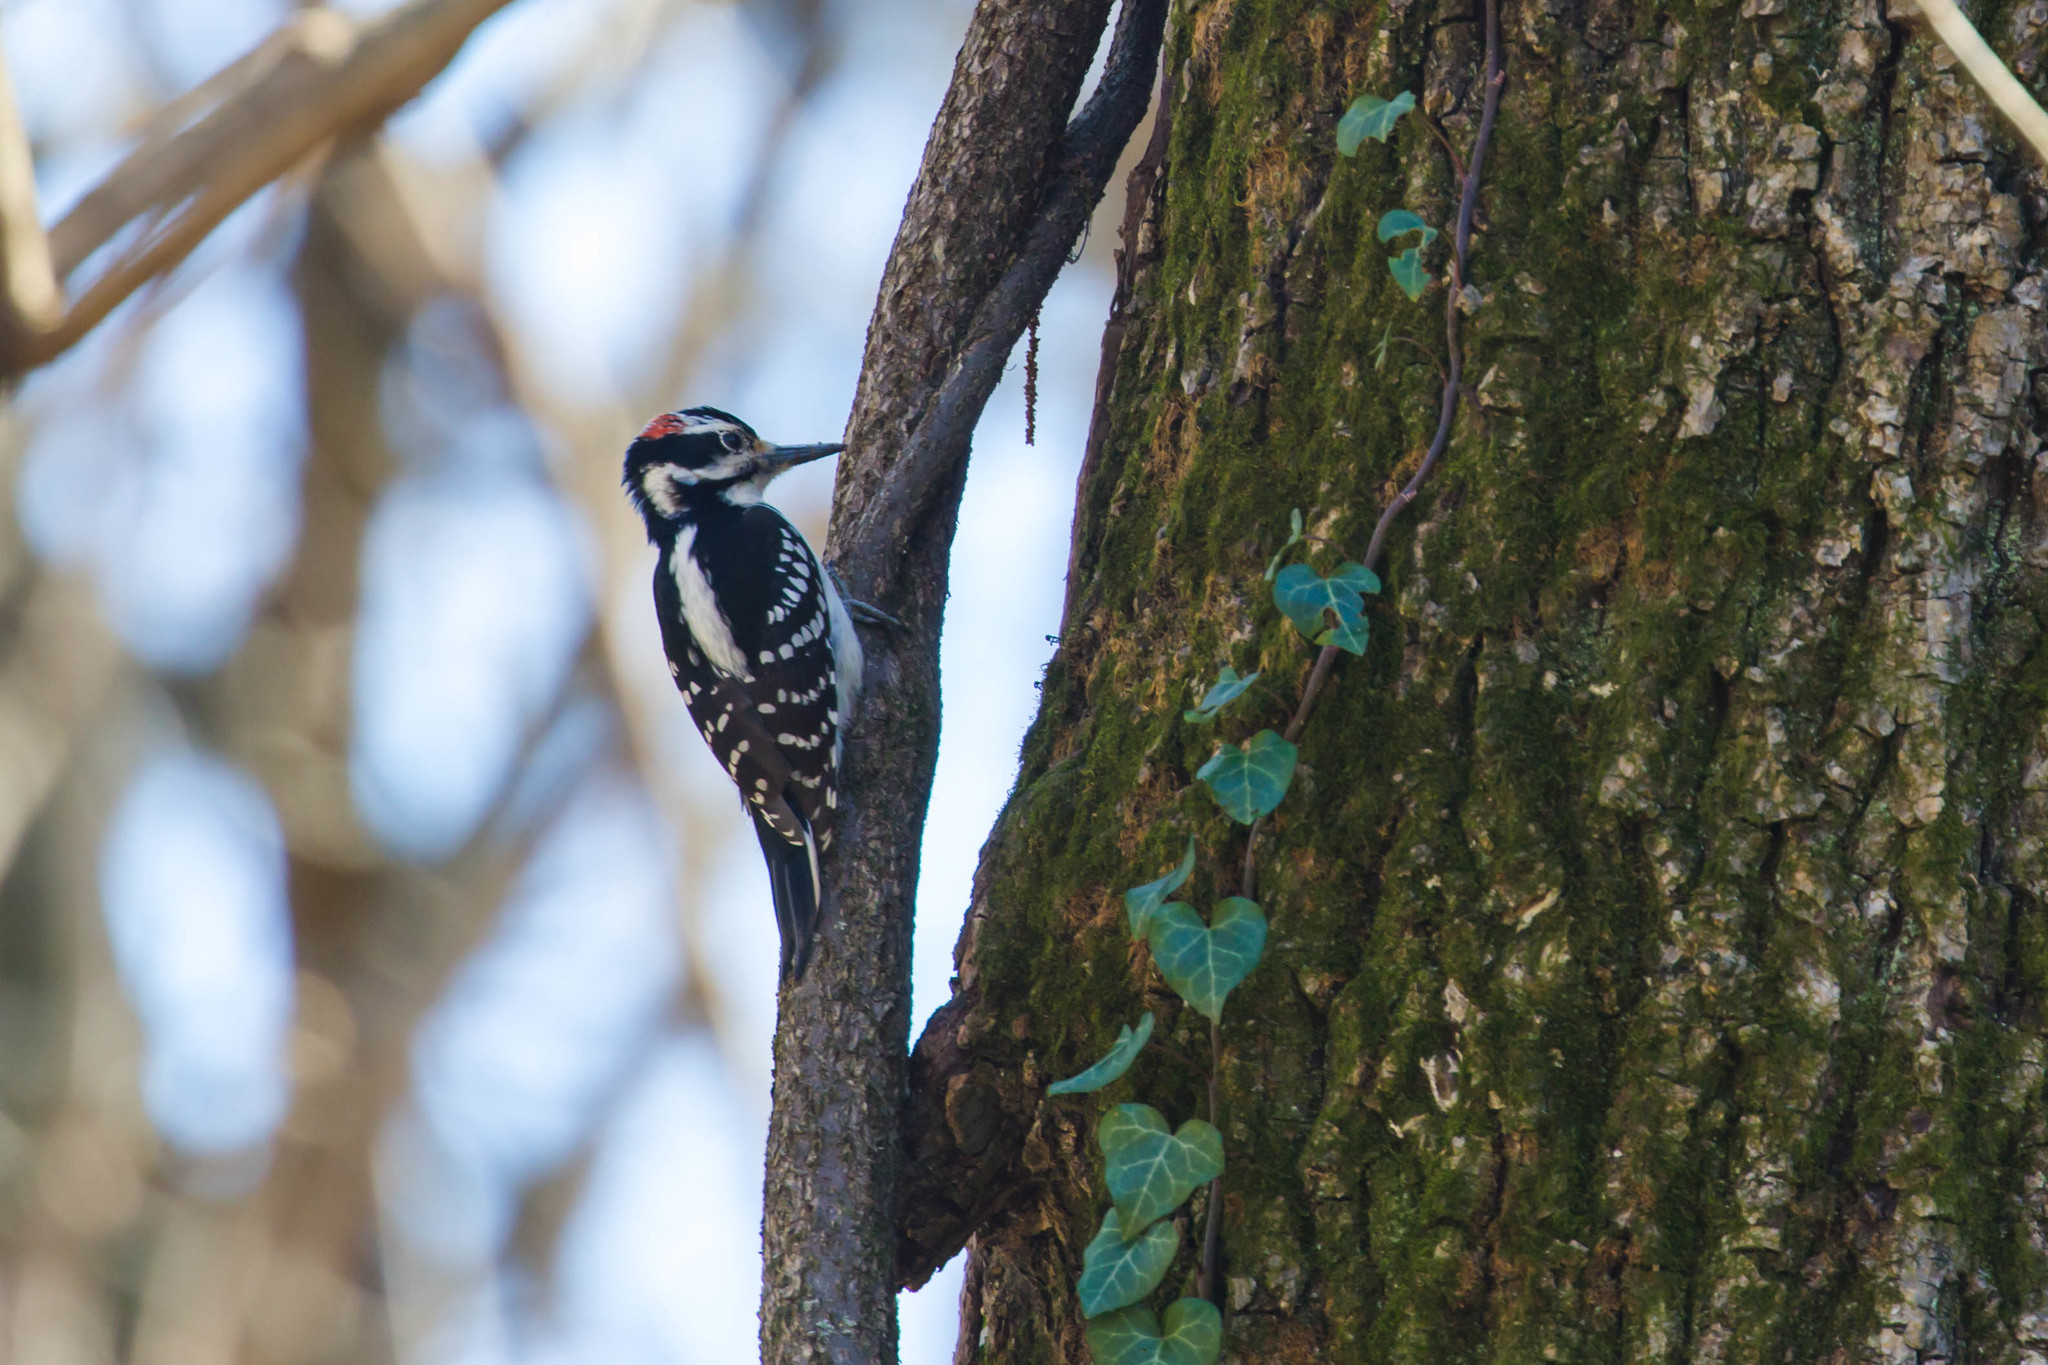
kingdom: Animalia
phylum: Chordata
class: Aves
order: Piciformes
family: Picidae
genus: Leuconotopicus
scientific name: Leuconotopicus villosus
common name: Hairy woodpecker
